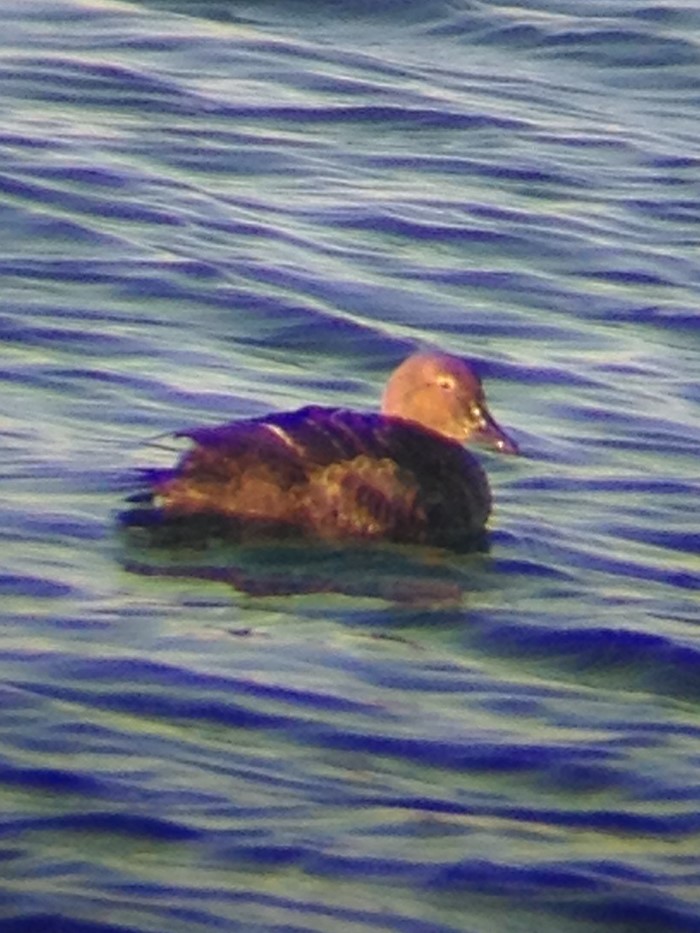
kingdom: Animalia
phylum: Chordata
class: Aves
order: Anseriformes
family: Anatidae
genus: Somateria
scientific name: Somateria spectabilis
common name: King eider
